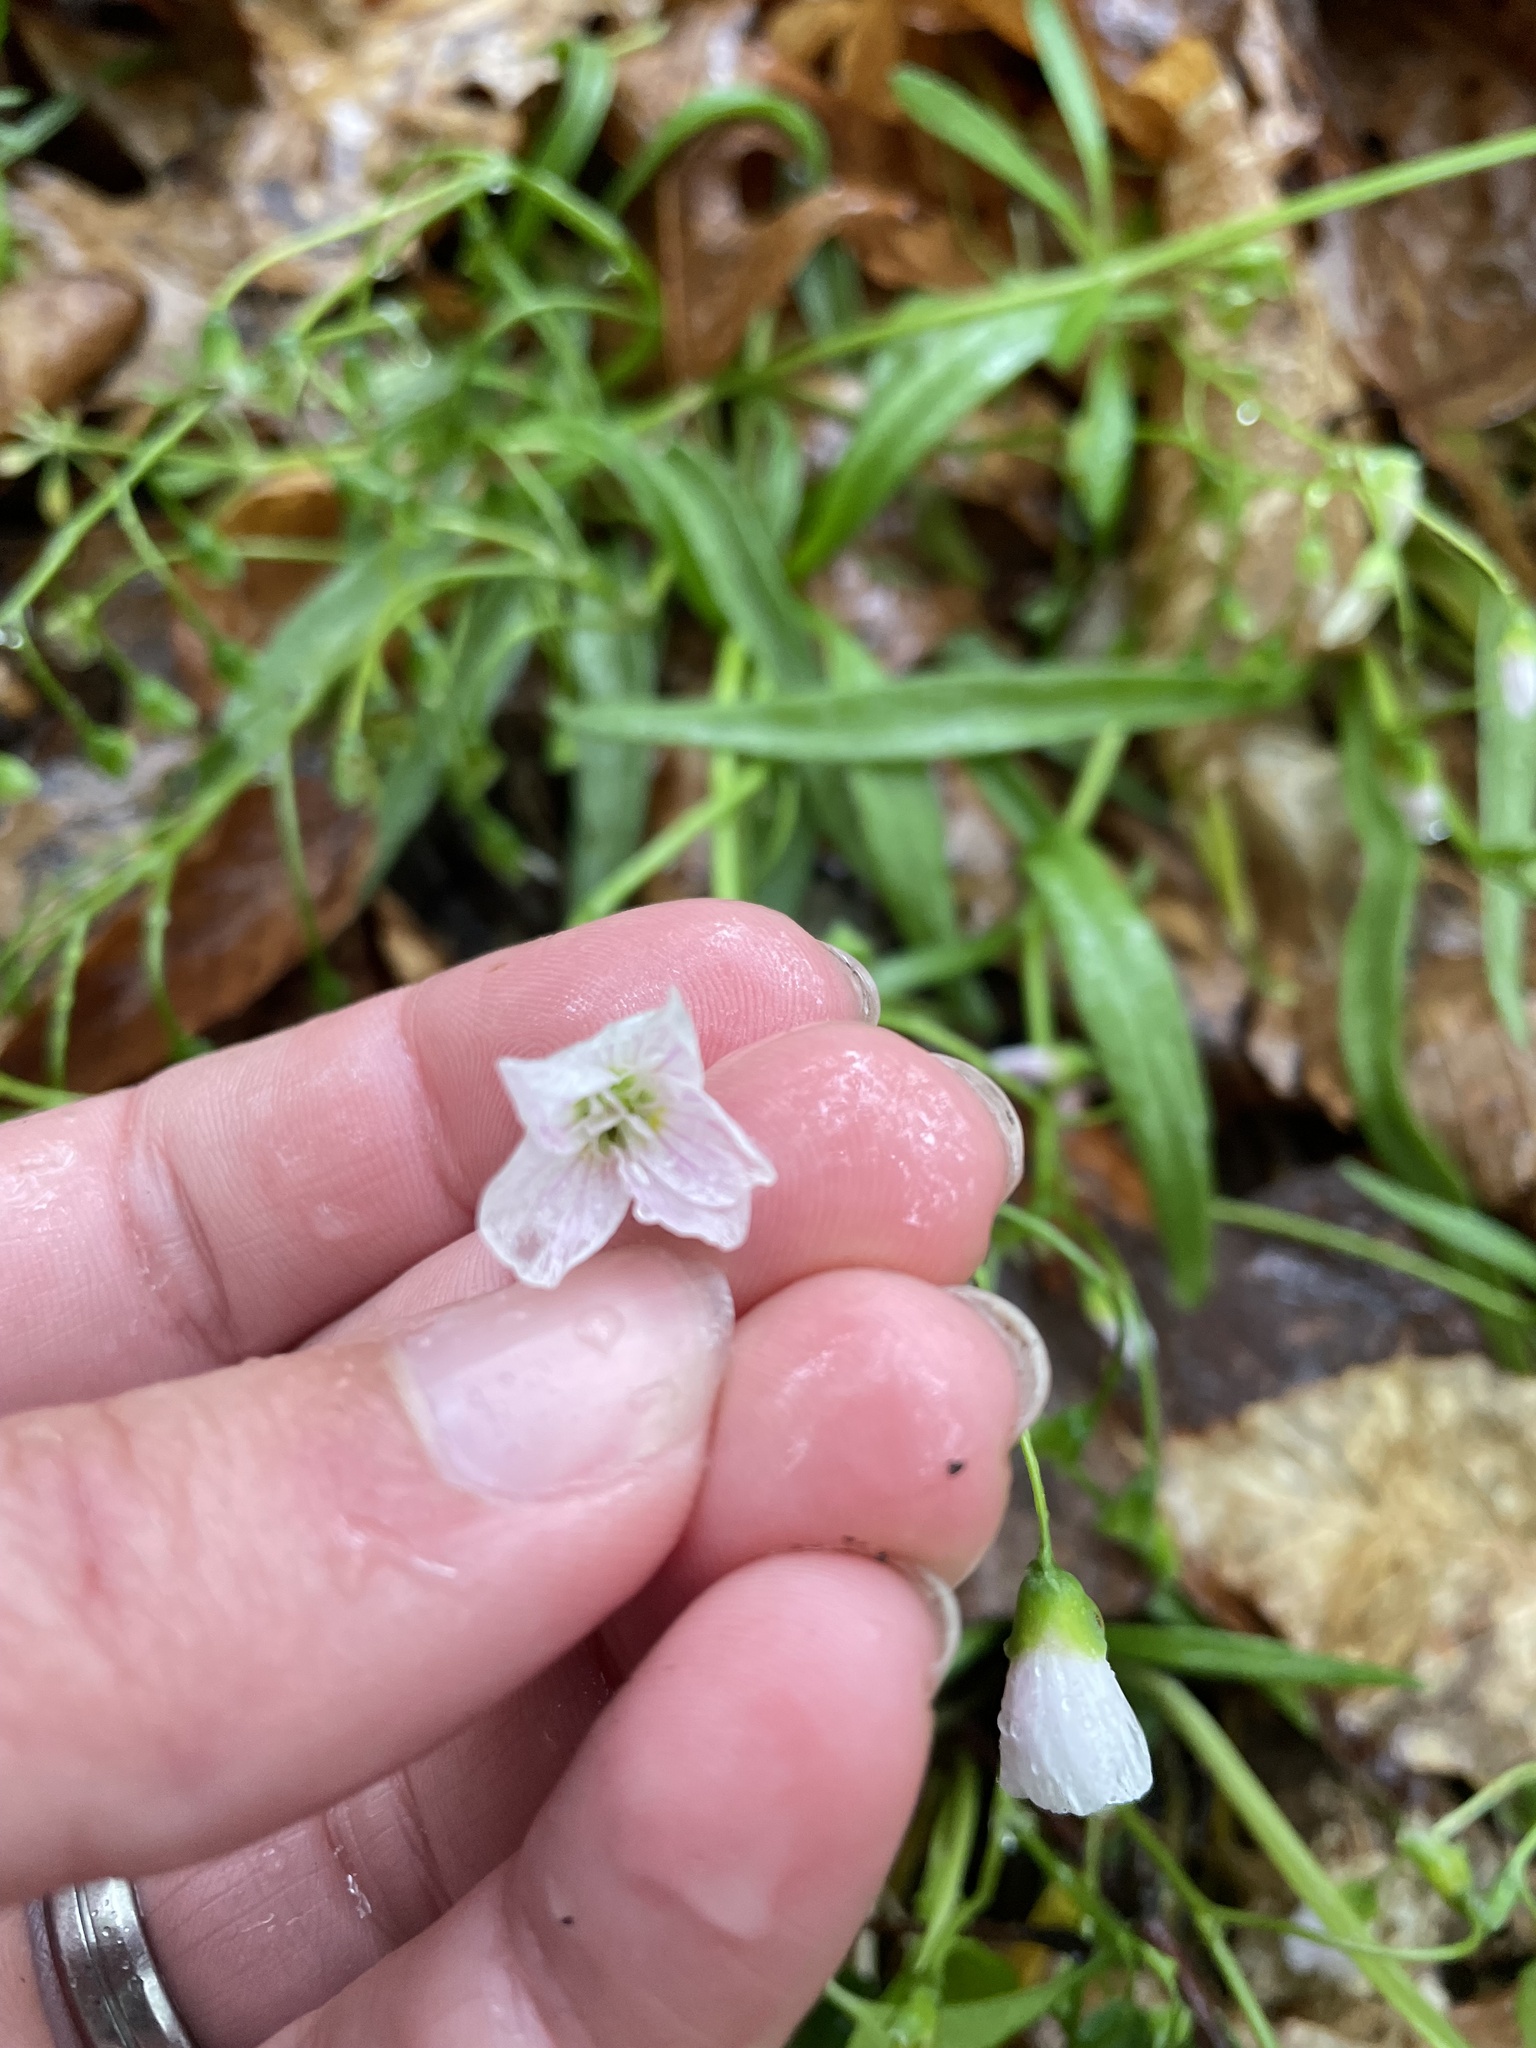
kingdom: Plantae
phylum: Tracheophyta
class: Magnoliopsida
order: Caryophyllales
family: Montiaceae
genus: Claytonia
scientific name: Claytonia virginica
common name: Virginia springbeauty
